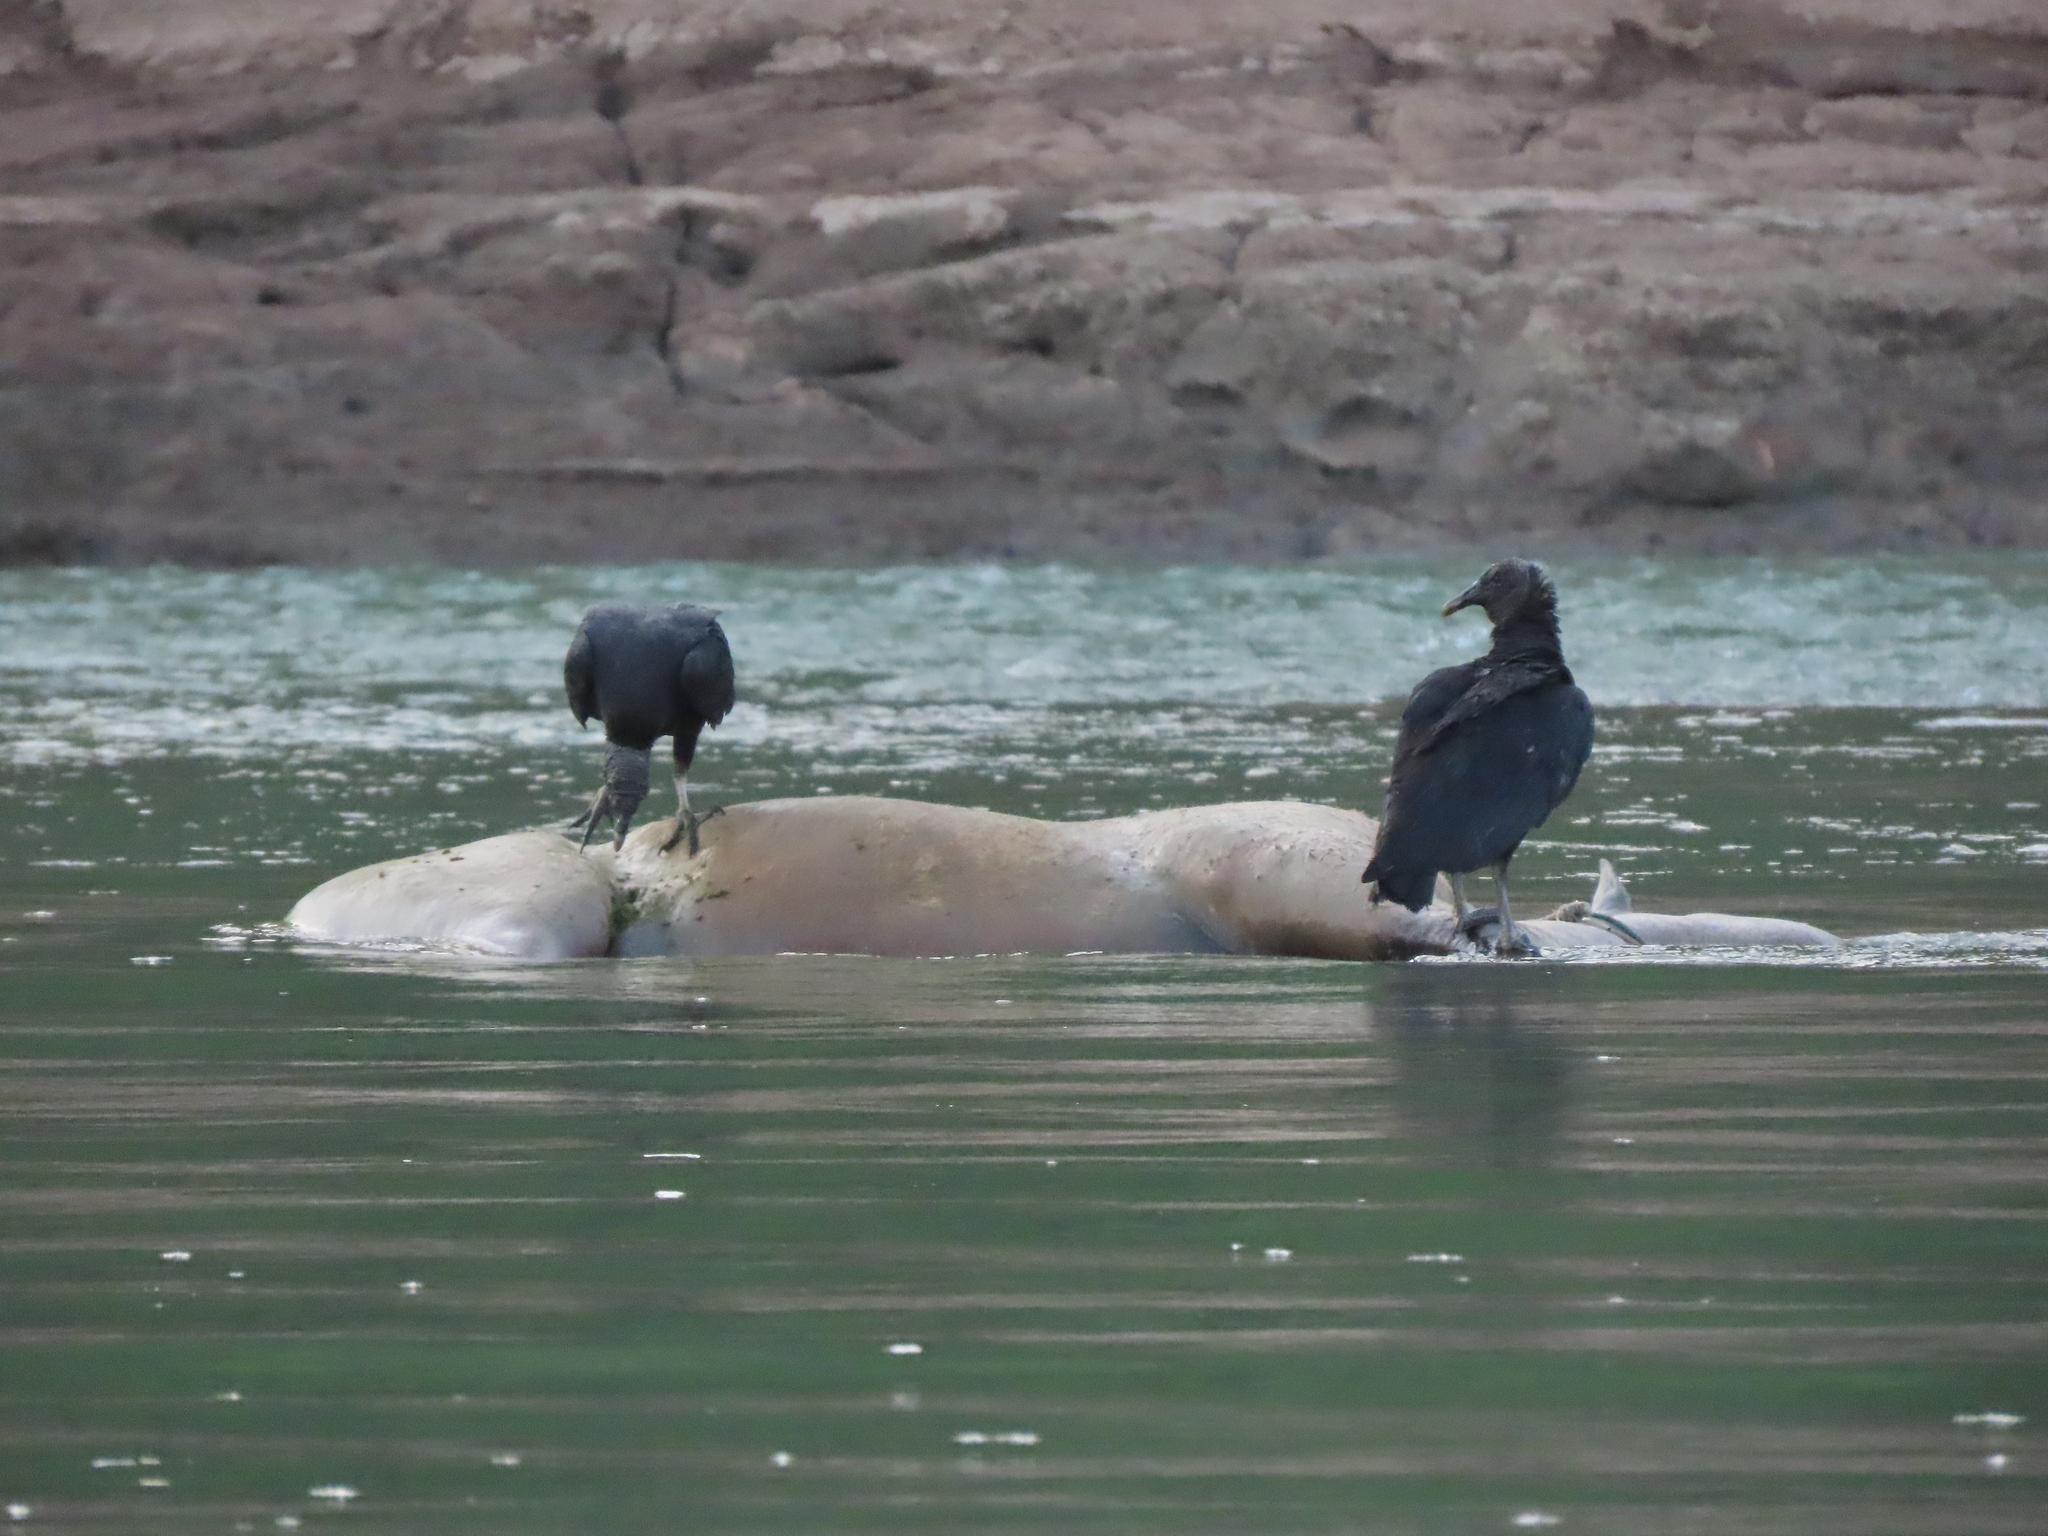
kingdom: Animalia
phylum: Chordata
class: Aves
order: Accipitriformes
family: Cathartidae
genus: Coragyps
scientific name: Coragyps atratus
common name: Black vulture
